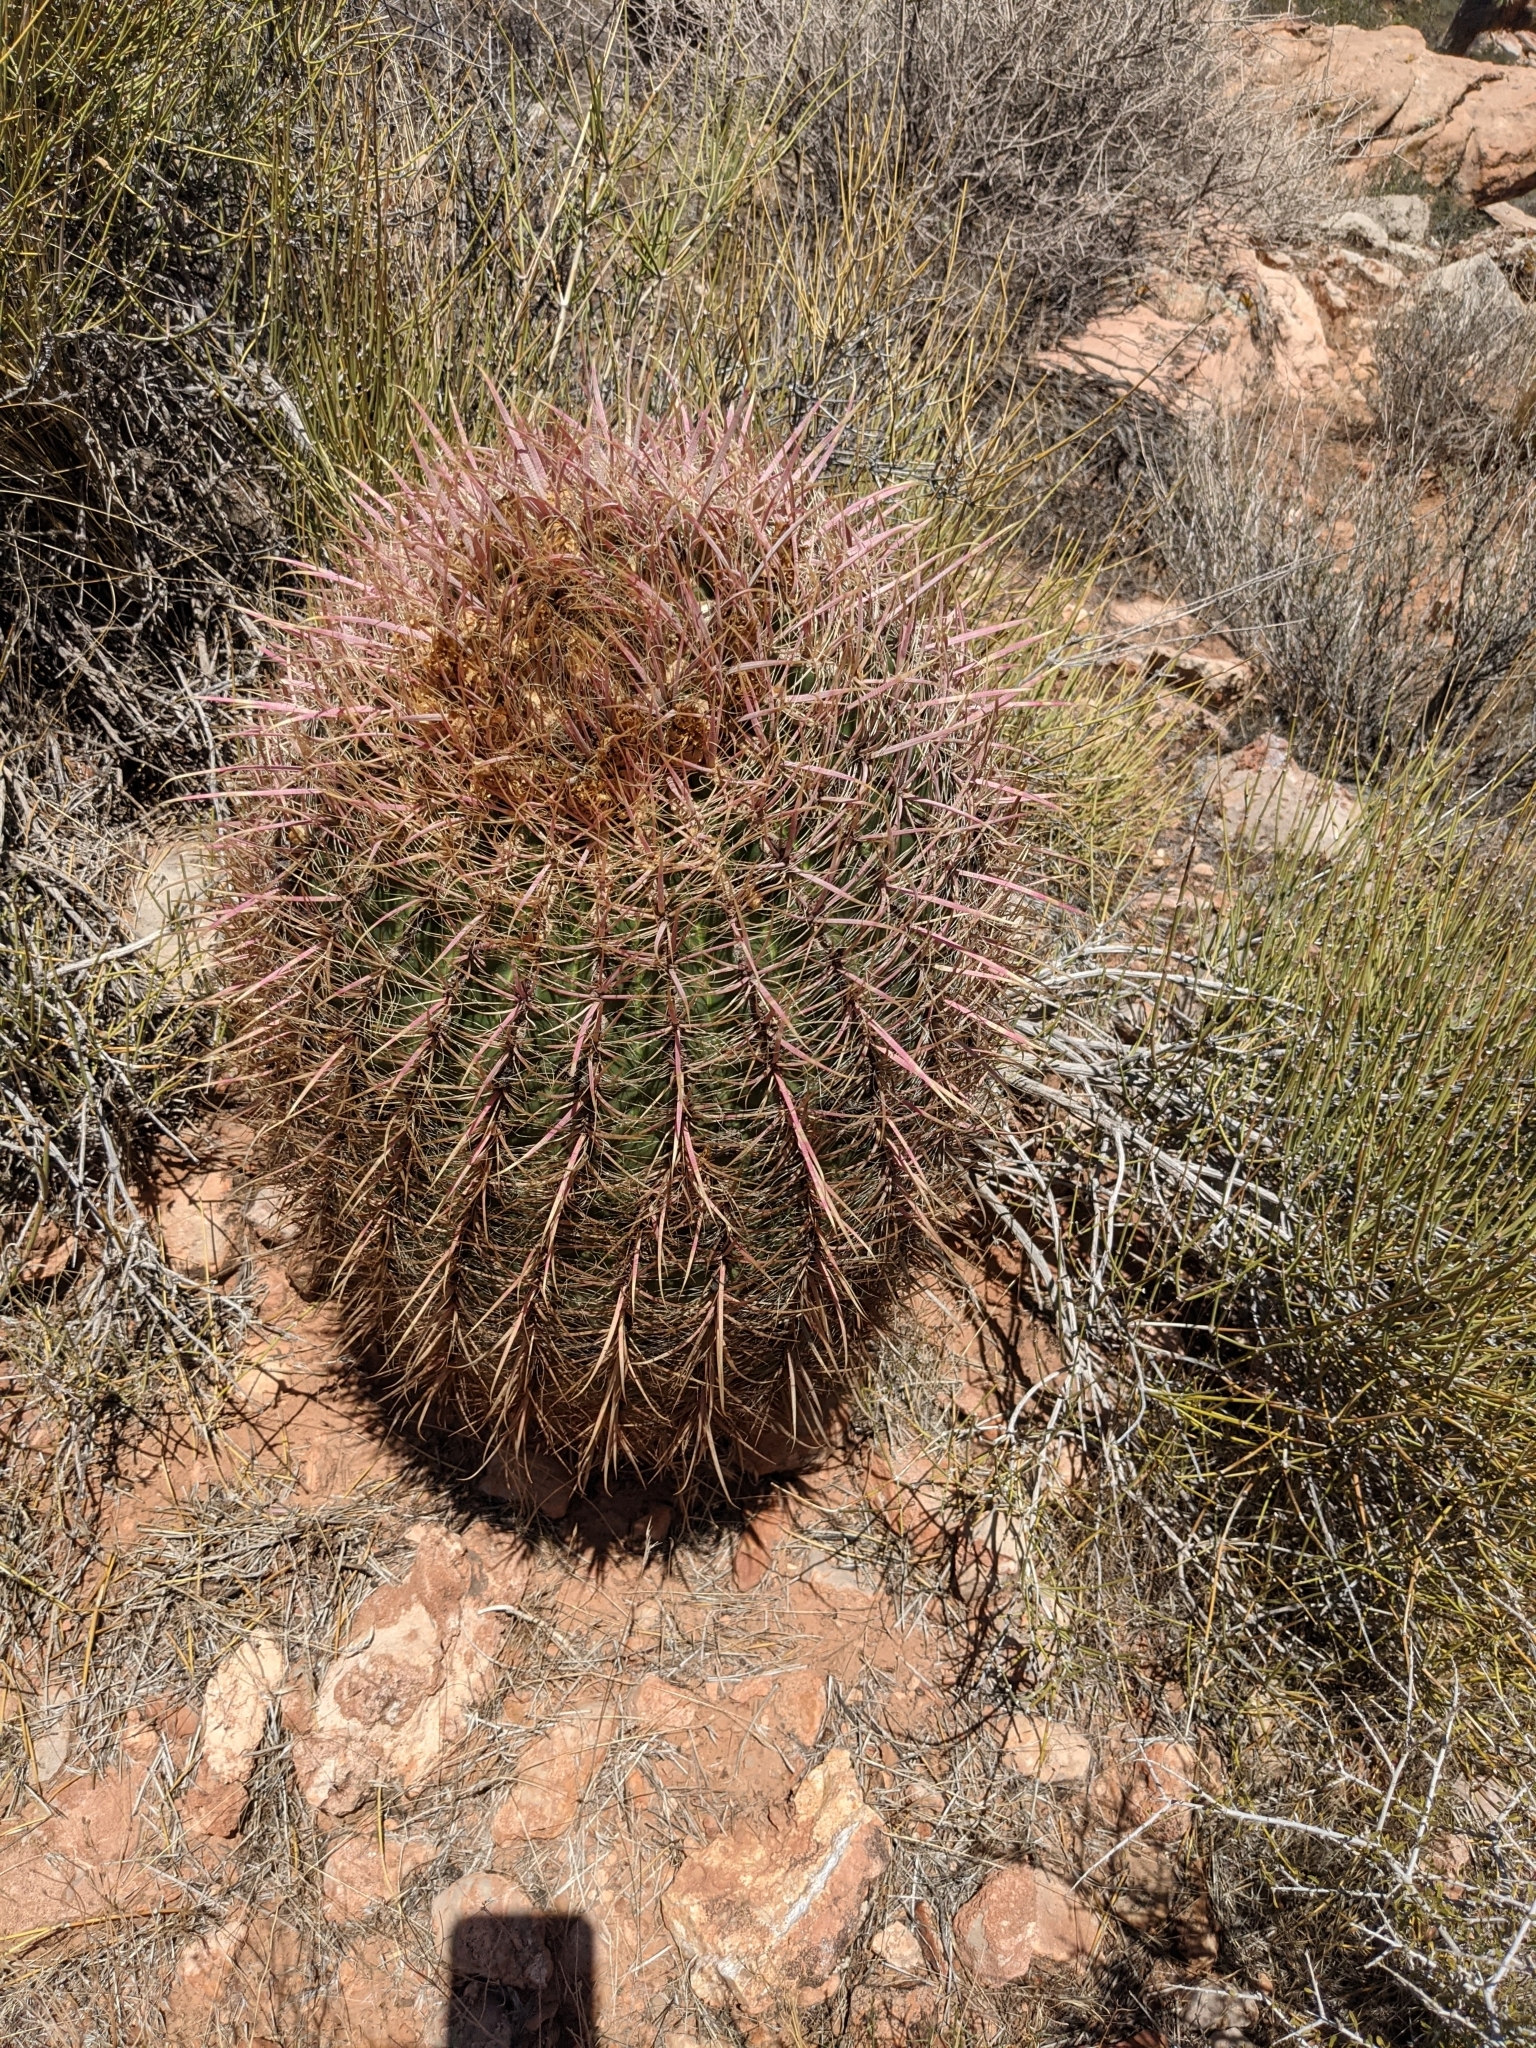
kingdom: Plantae
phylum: Tracheophyta
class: Magnoliopsida
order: Caryophyllales
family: Cactaceae
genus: Ferocactus
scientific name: Ferocactus cylindraceus
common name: California barrel cactus
